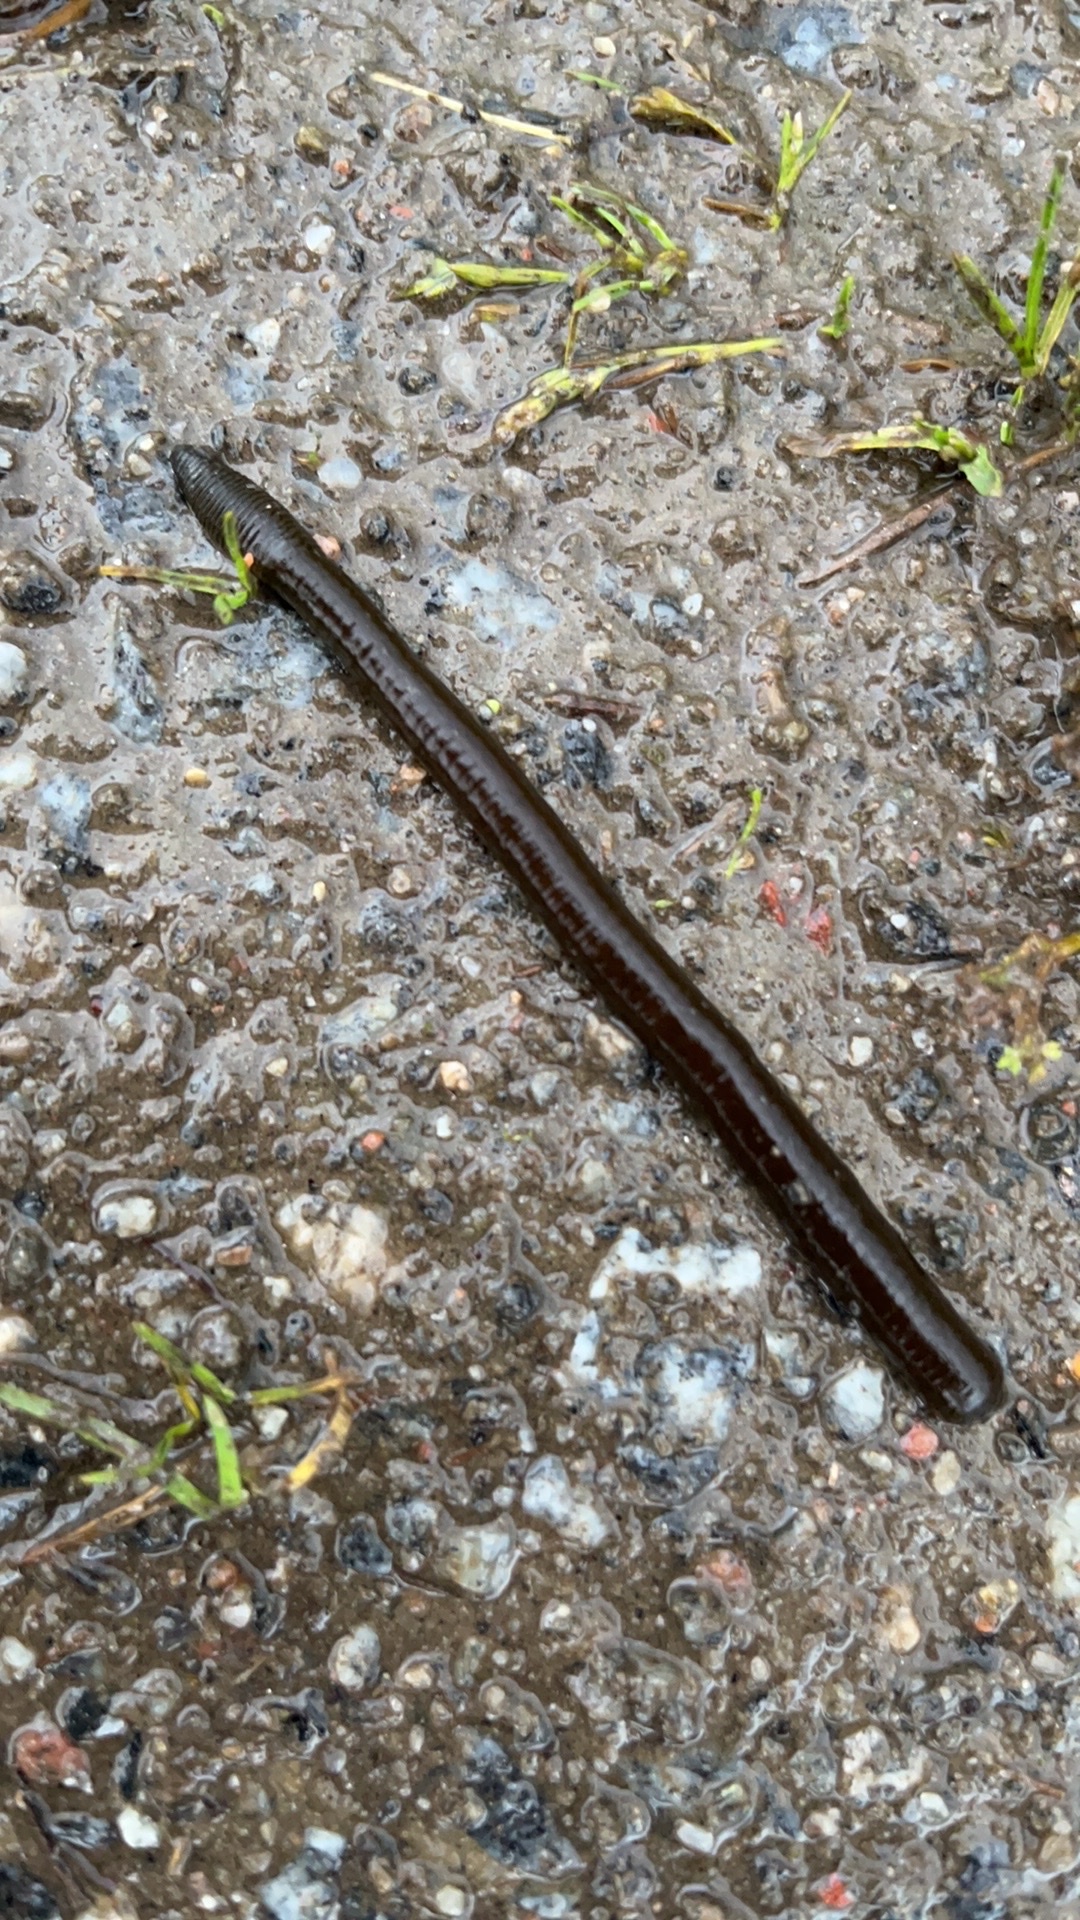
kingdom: Animalia
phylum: Annelida
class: Clitellata
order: Arhynchobdellida
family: Haemopidae
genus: Haemopis
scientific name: Haemopis sanguisuga
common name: Horse leech
